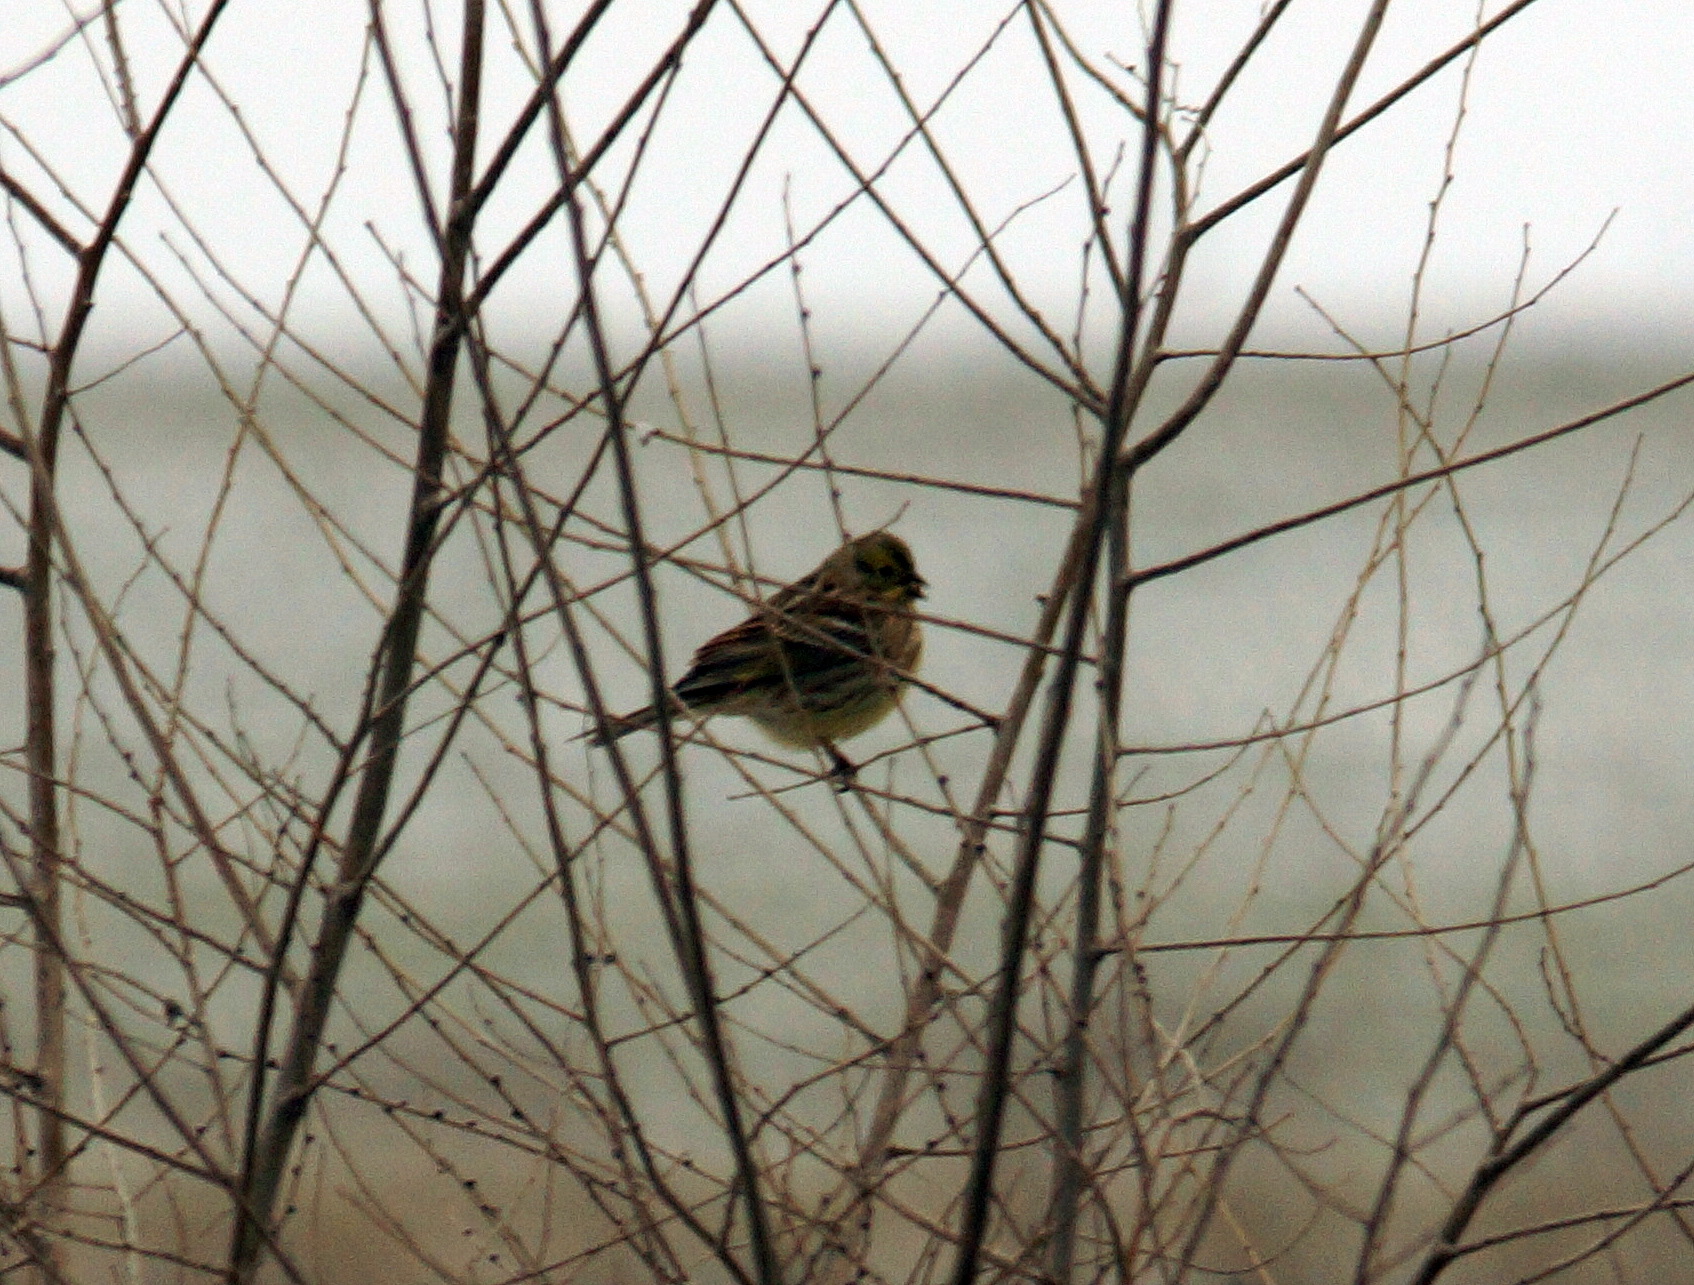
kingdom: Animalia
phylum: Chordata
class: Aves
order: Passeriformes
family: Emberizidae
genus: Emberiza
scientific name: Emberiza citrinella
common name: Yellowhammer
